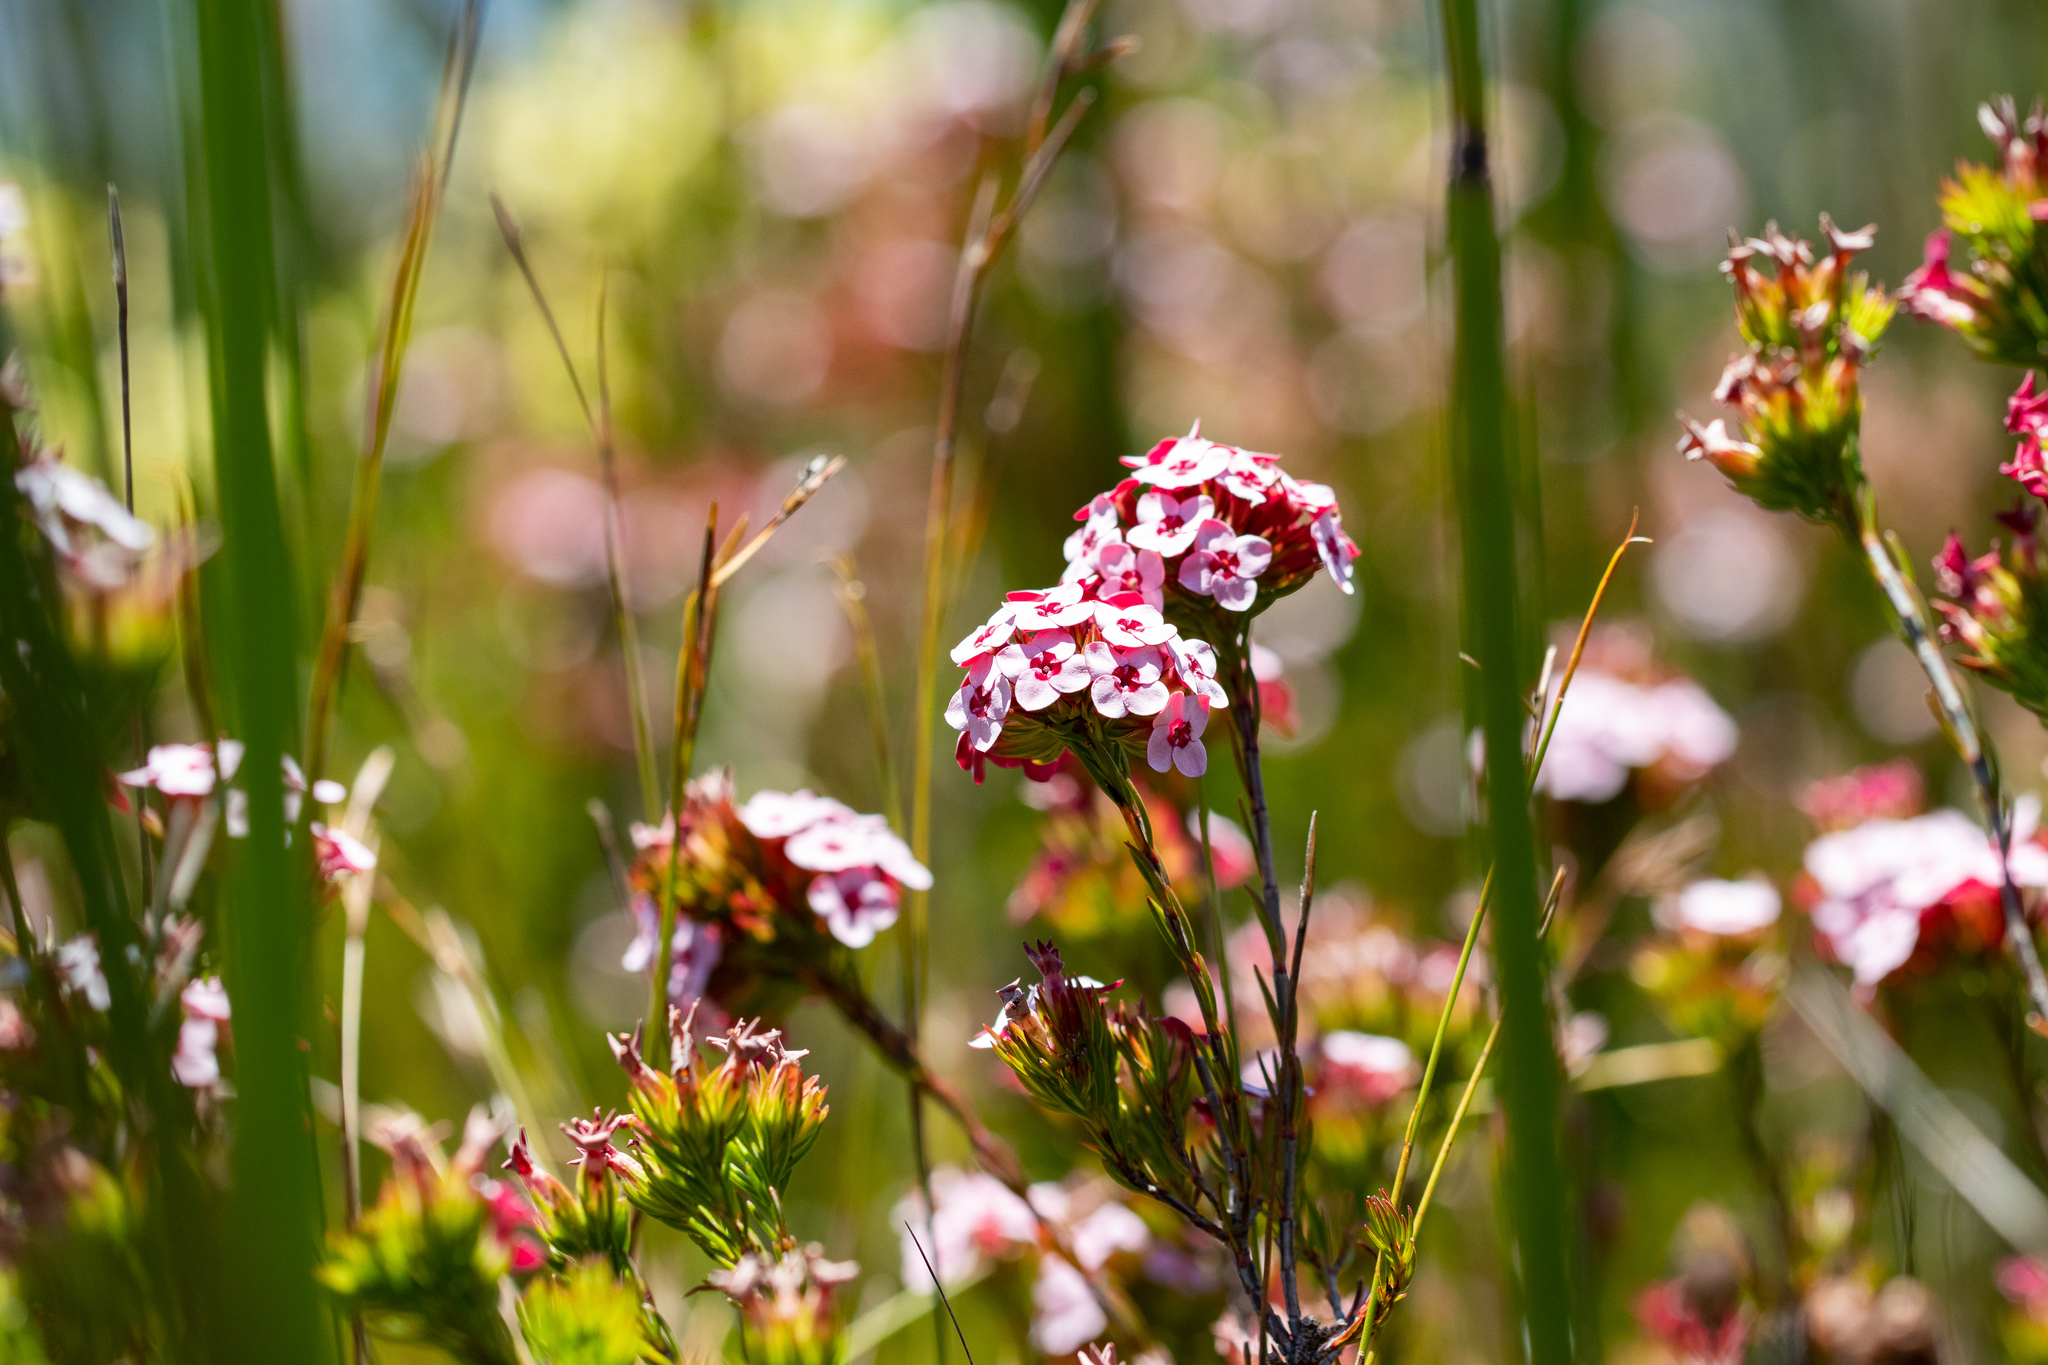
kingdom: Plantae
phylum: Tracheophyta
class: Magnoliopsida
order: Ericales
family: Ericaceae
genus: Erica
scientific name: Erica fastigiata
